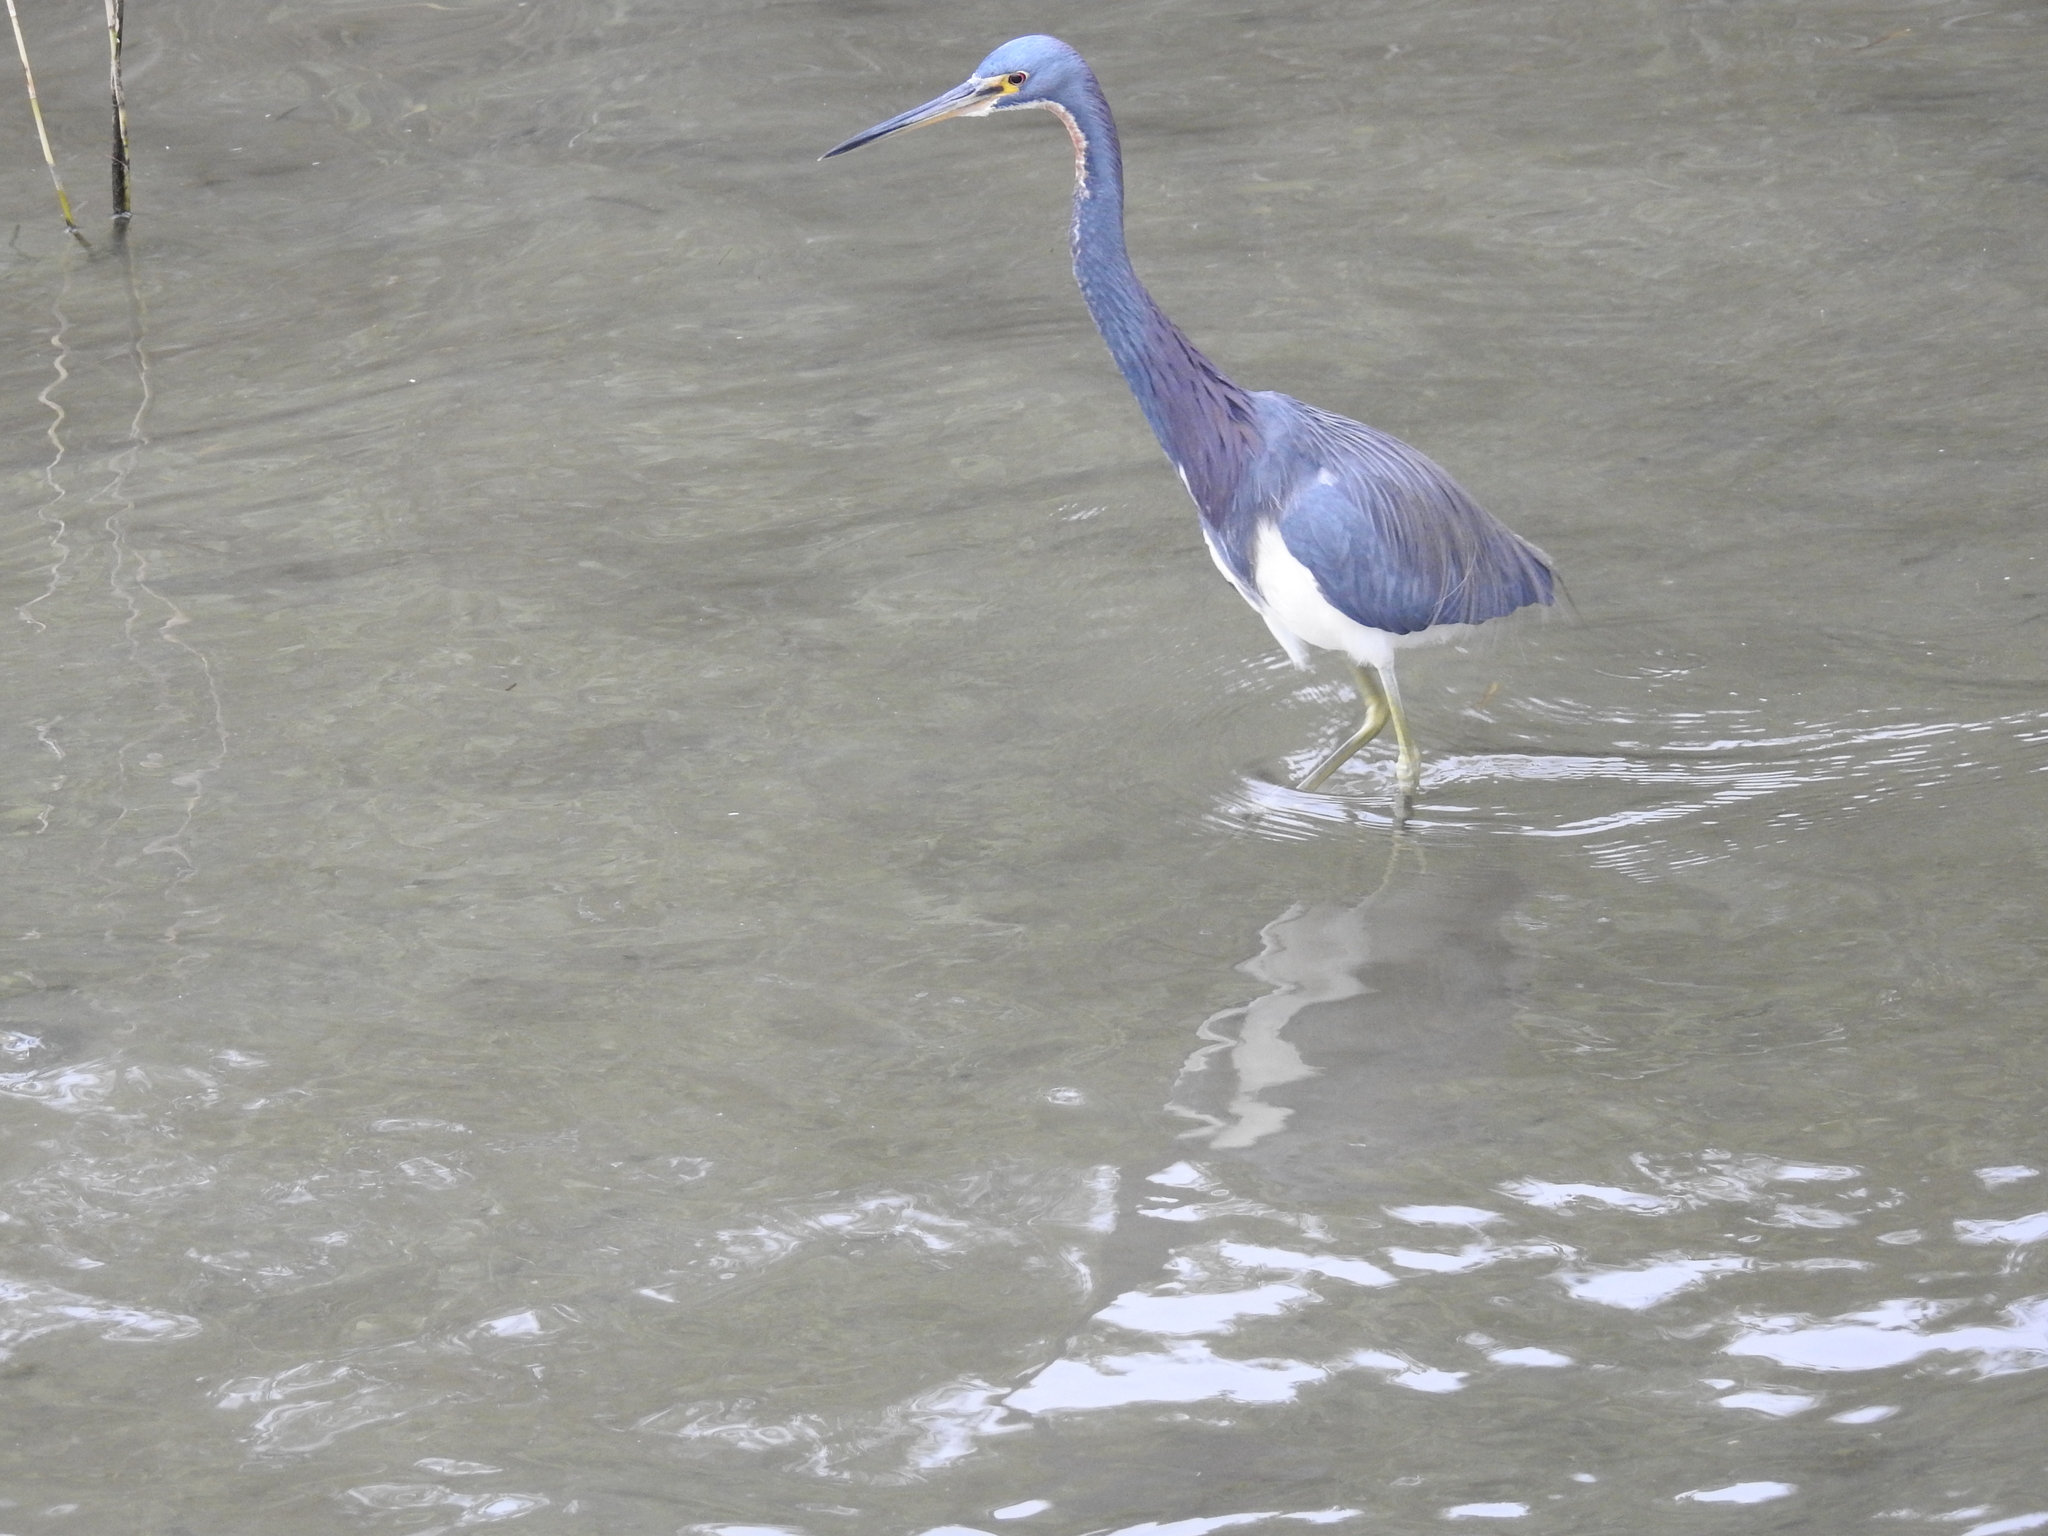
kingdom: Animalia
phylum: Chordata
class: Aves
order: Pelecaniformes
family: Ardeidae
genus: Egretta
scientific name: Egretta tricolor
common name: Tricolored heron
